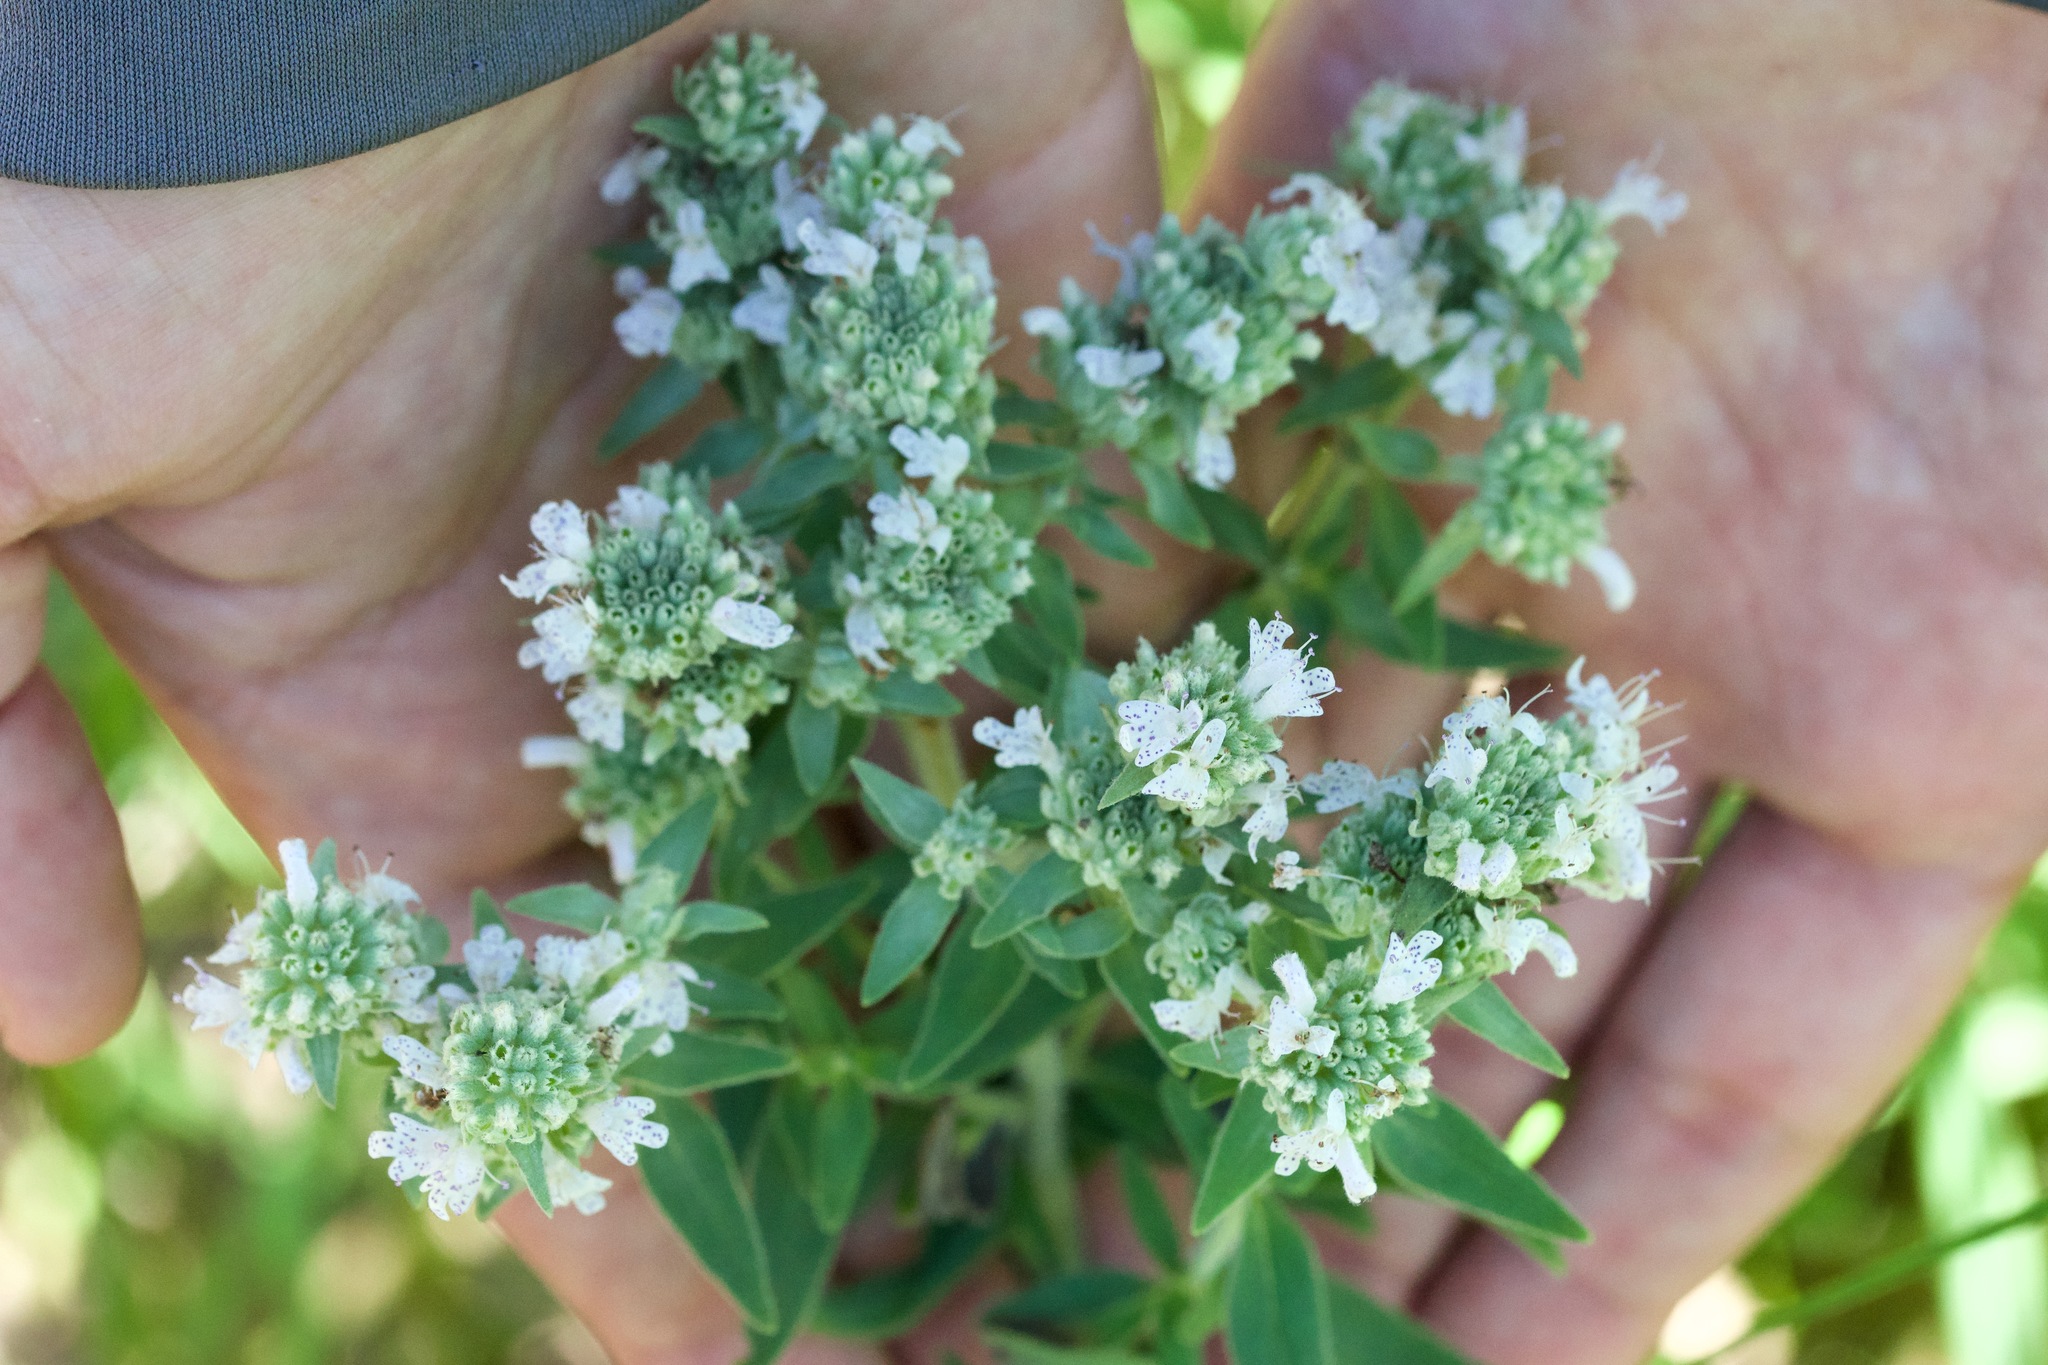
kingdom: Plantae
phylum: Tracheophyta
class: Magnoliopsida
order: Lamiales
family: Lamiaceae
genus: Pycnanthemum
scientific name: Pycnanthemum verticillatum
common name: Whorled mountain-mint
